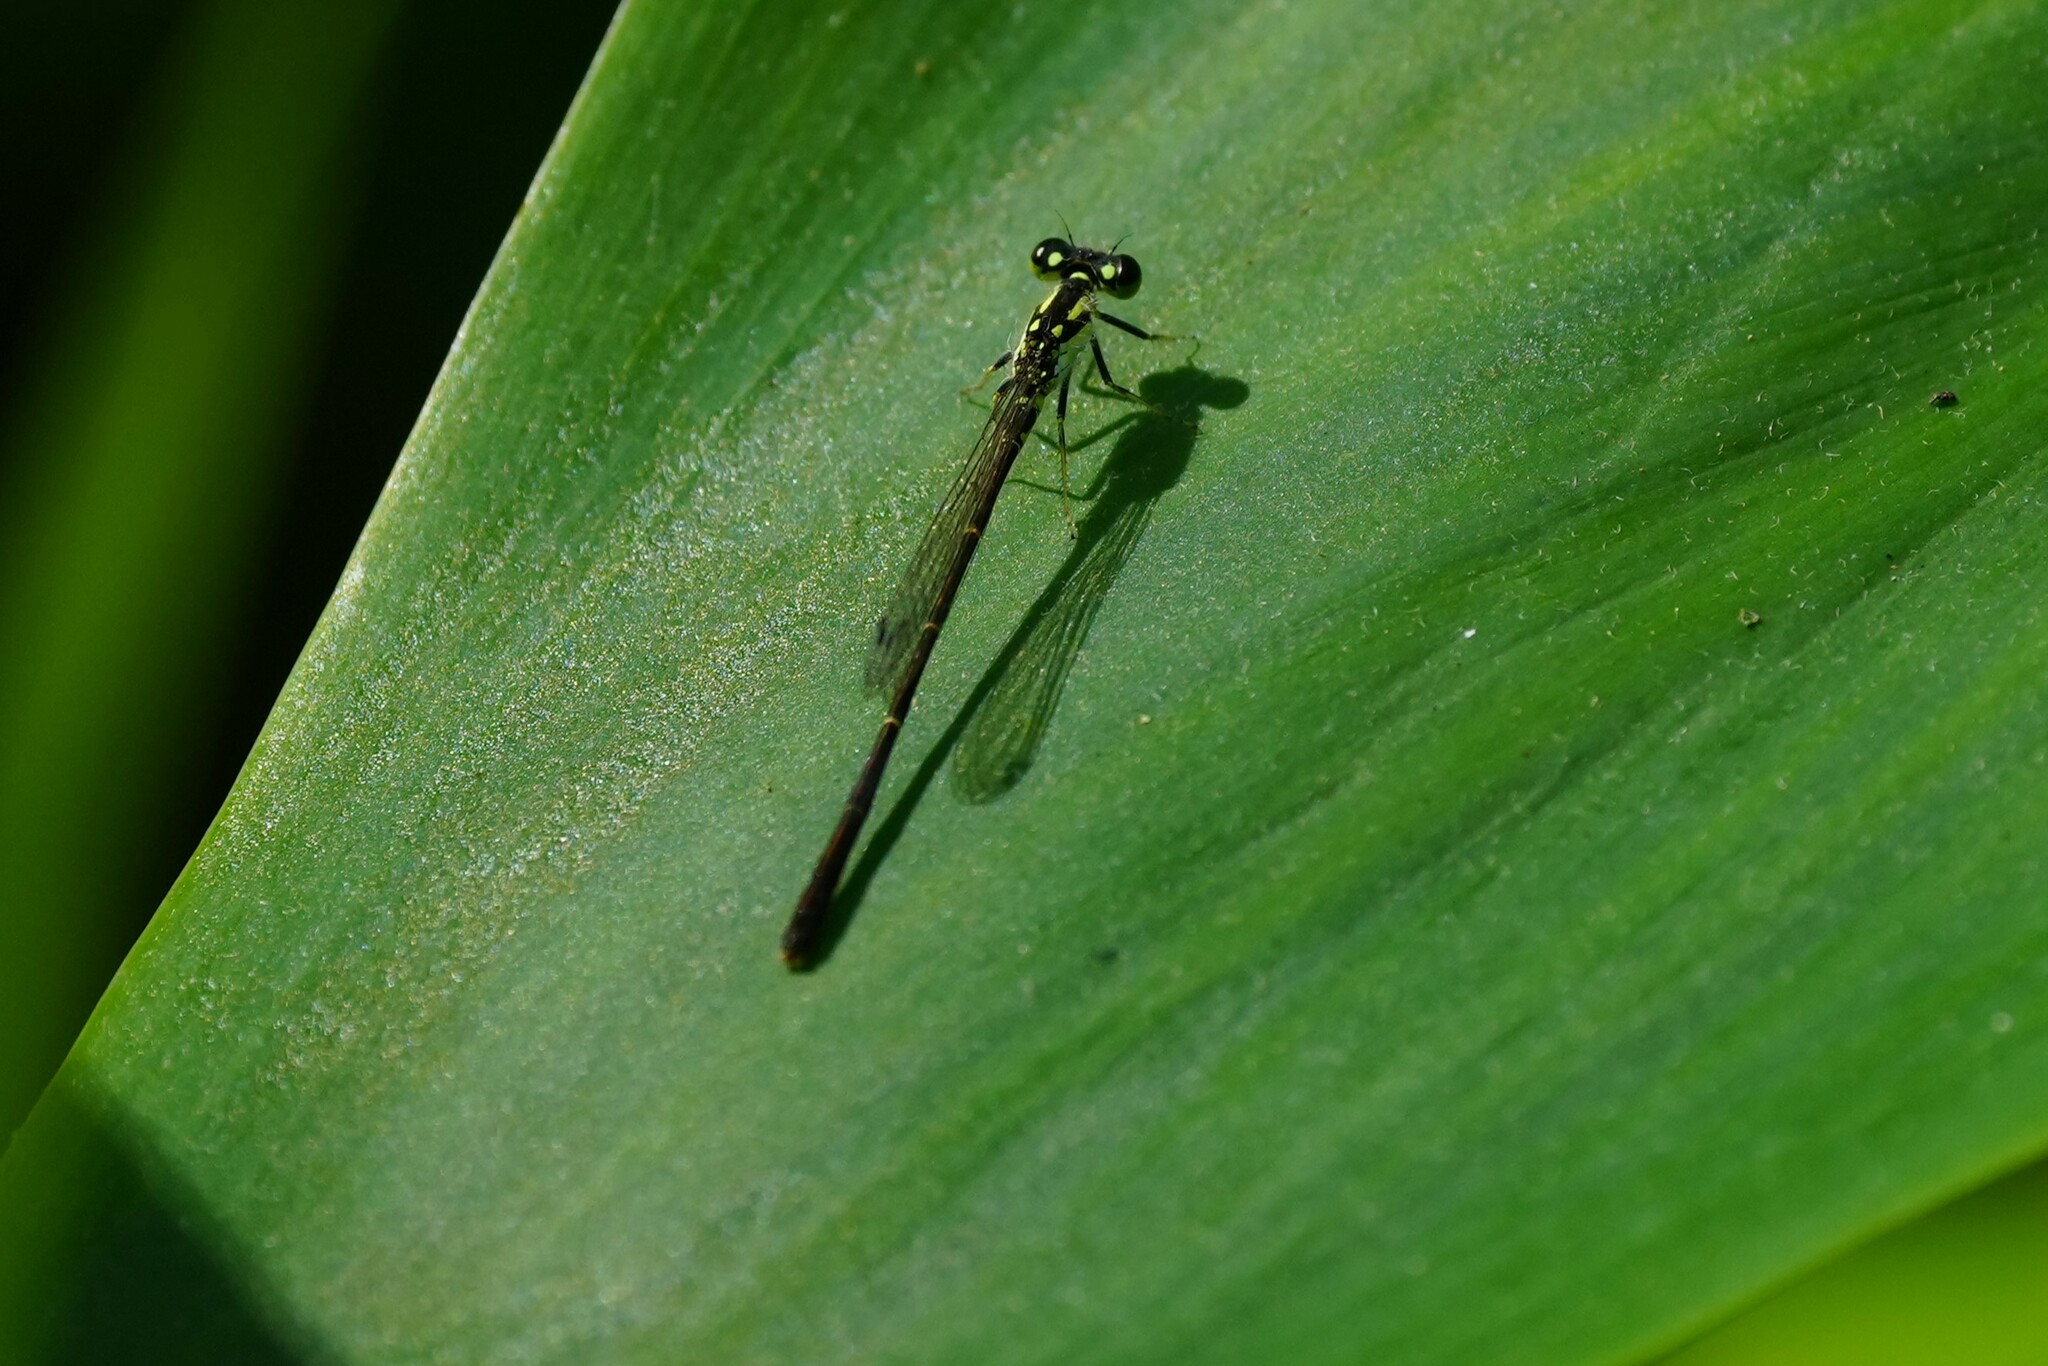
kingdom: Animalia
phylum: Arthropoda
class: Insecta
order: Odonata
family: Coenagrionidae
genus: Ischnura
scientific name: Ischnura posita
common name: Fragile forktail
